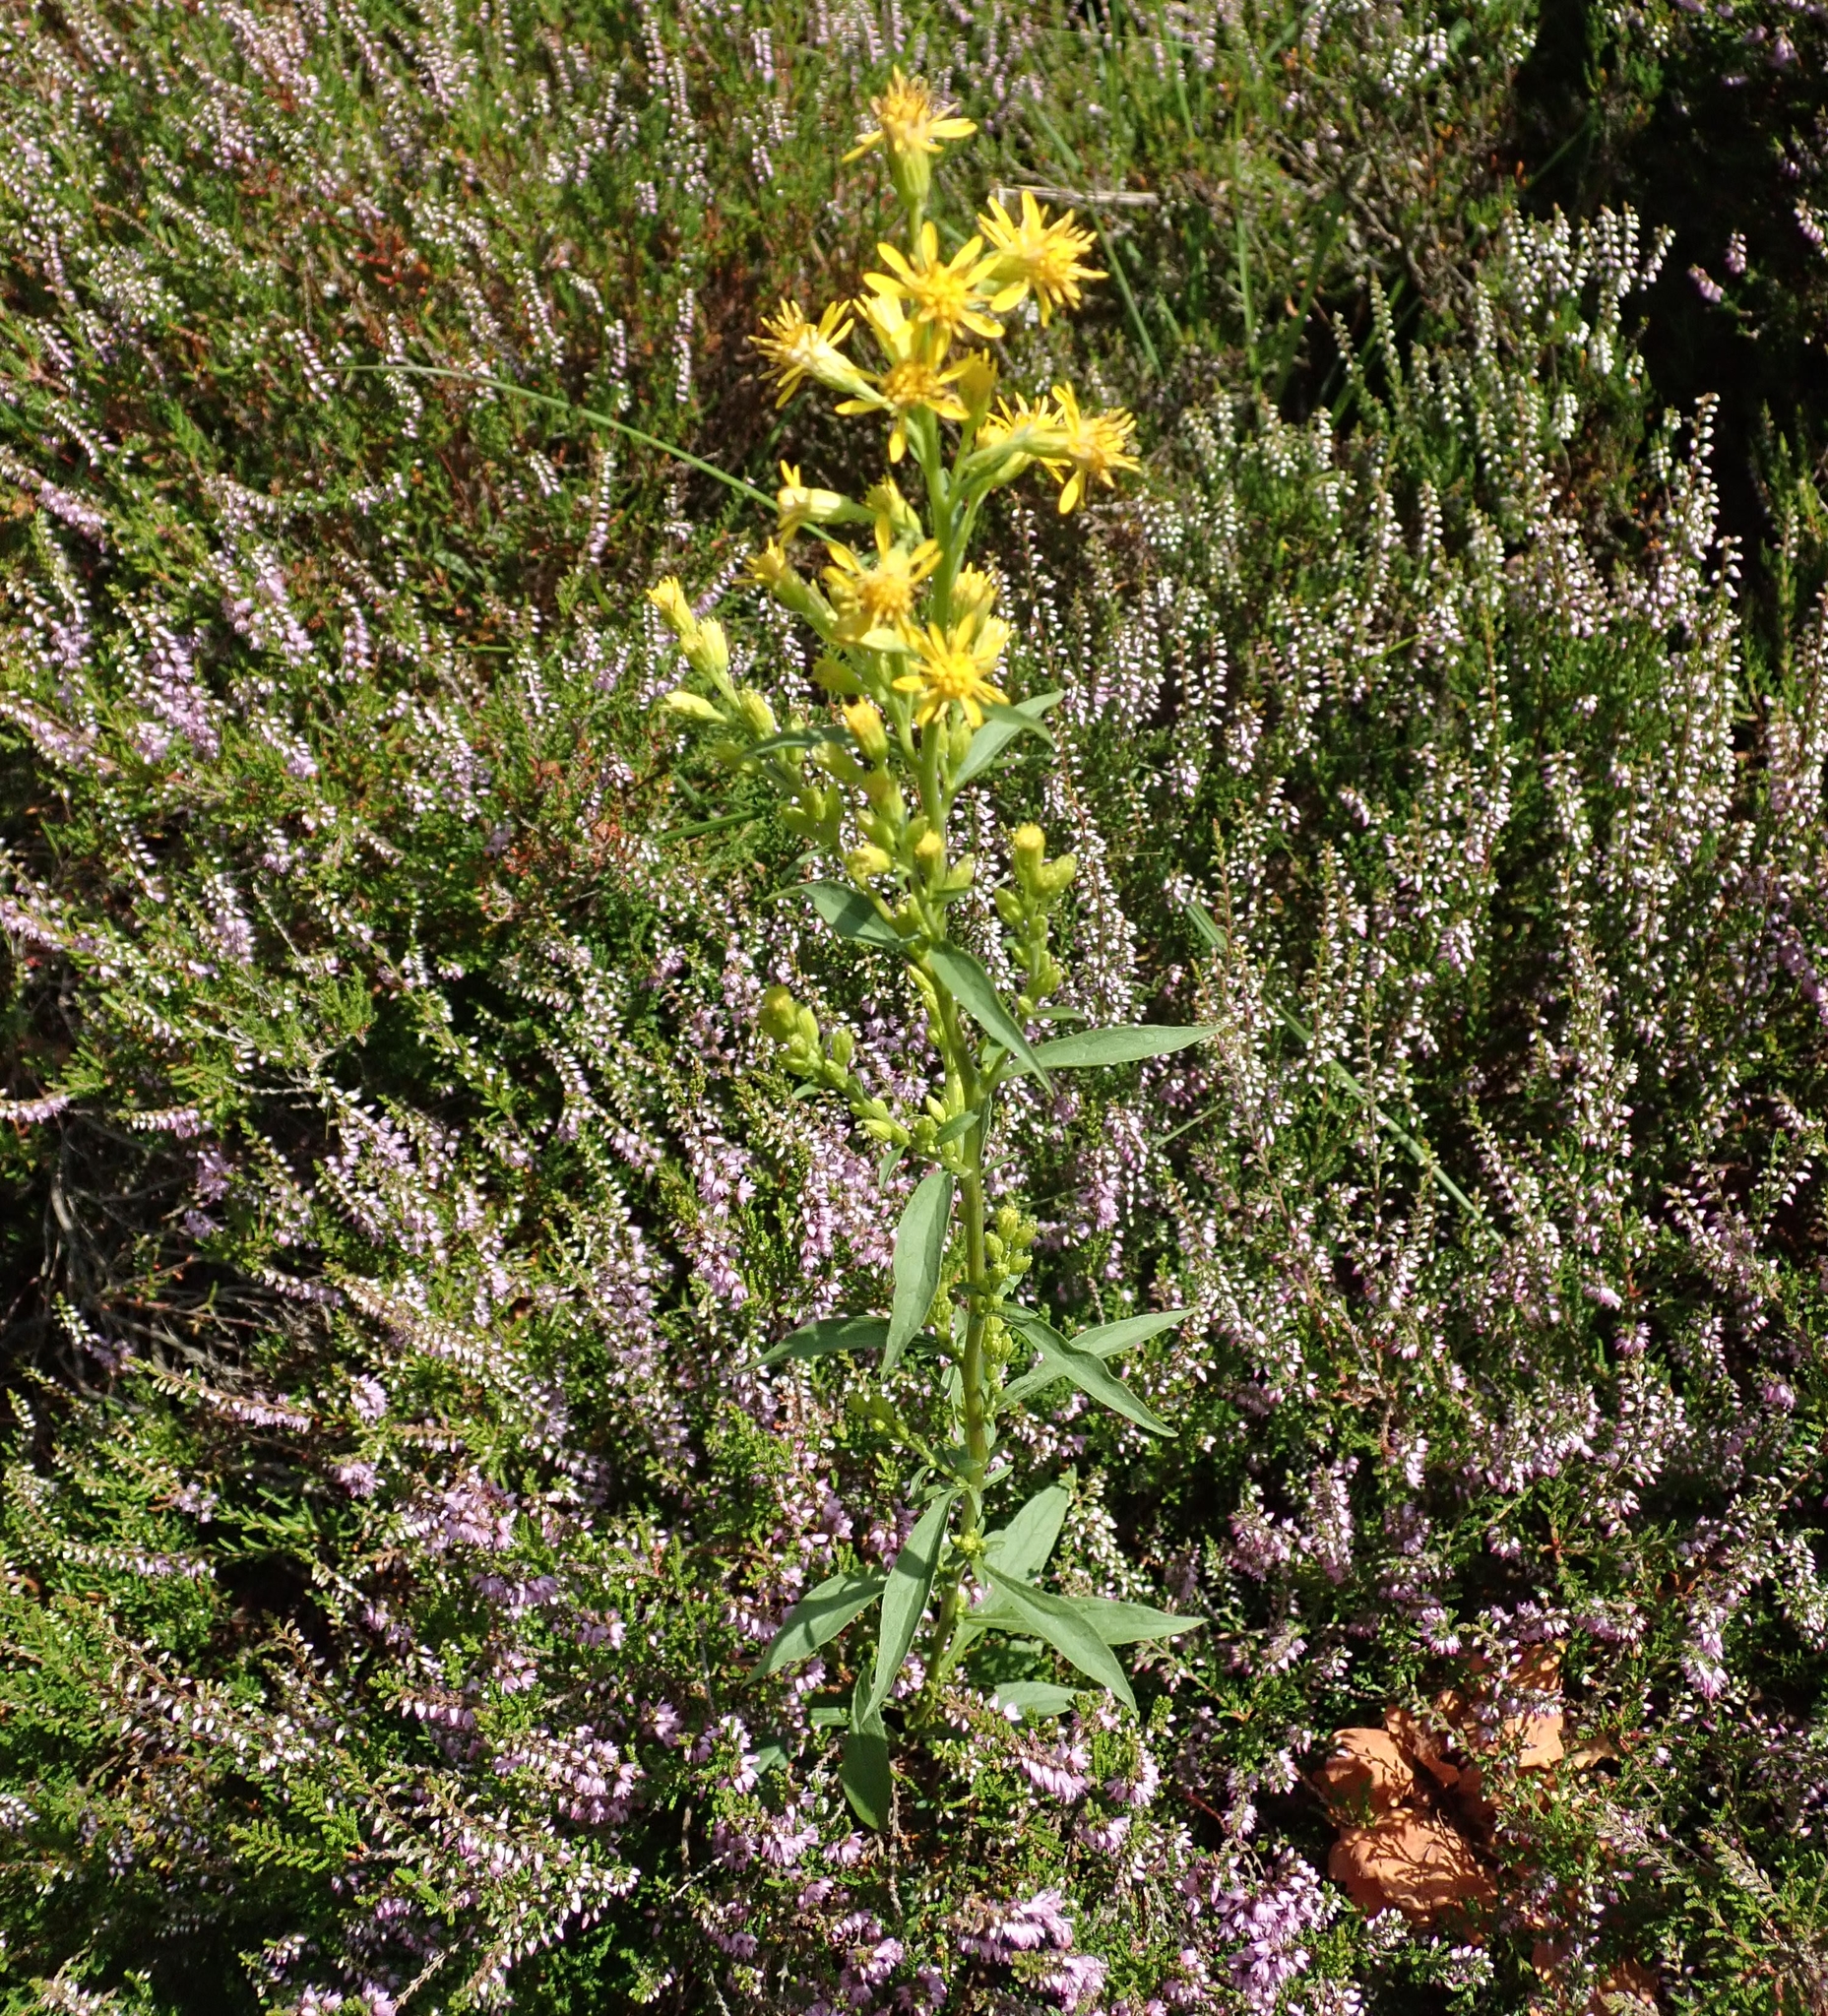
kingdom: Plantae
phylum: Tracheophyta
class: Magnoliopsida
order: Asterales
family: Asteraceae
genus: Solidago
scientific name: Solidago virgaurea
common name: Goldenrod
